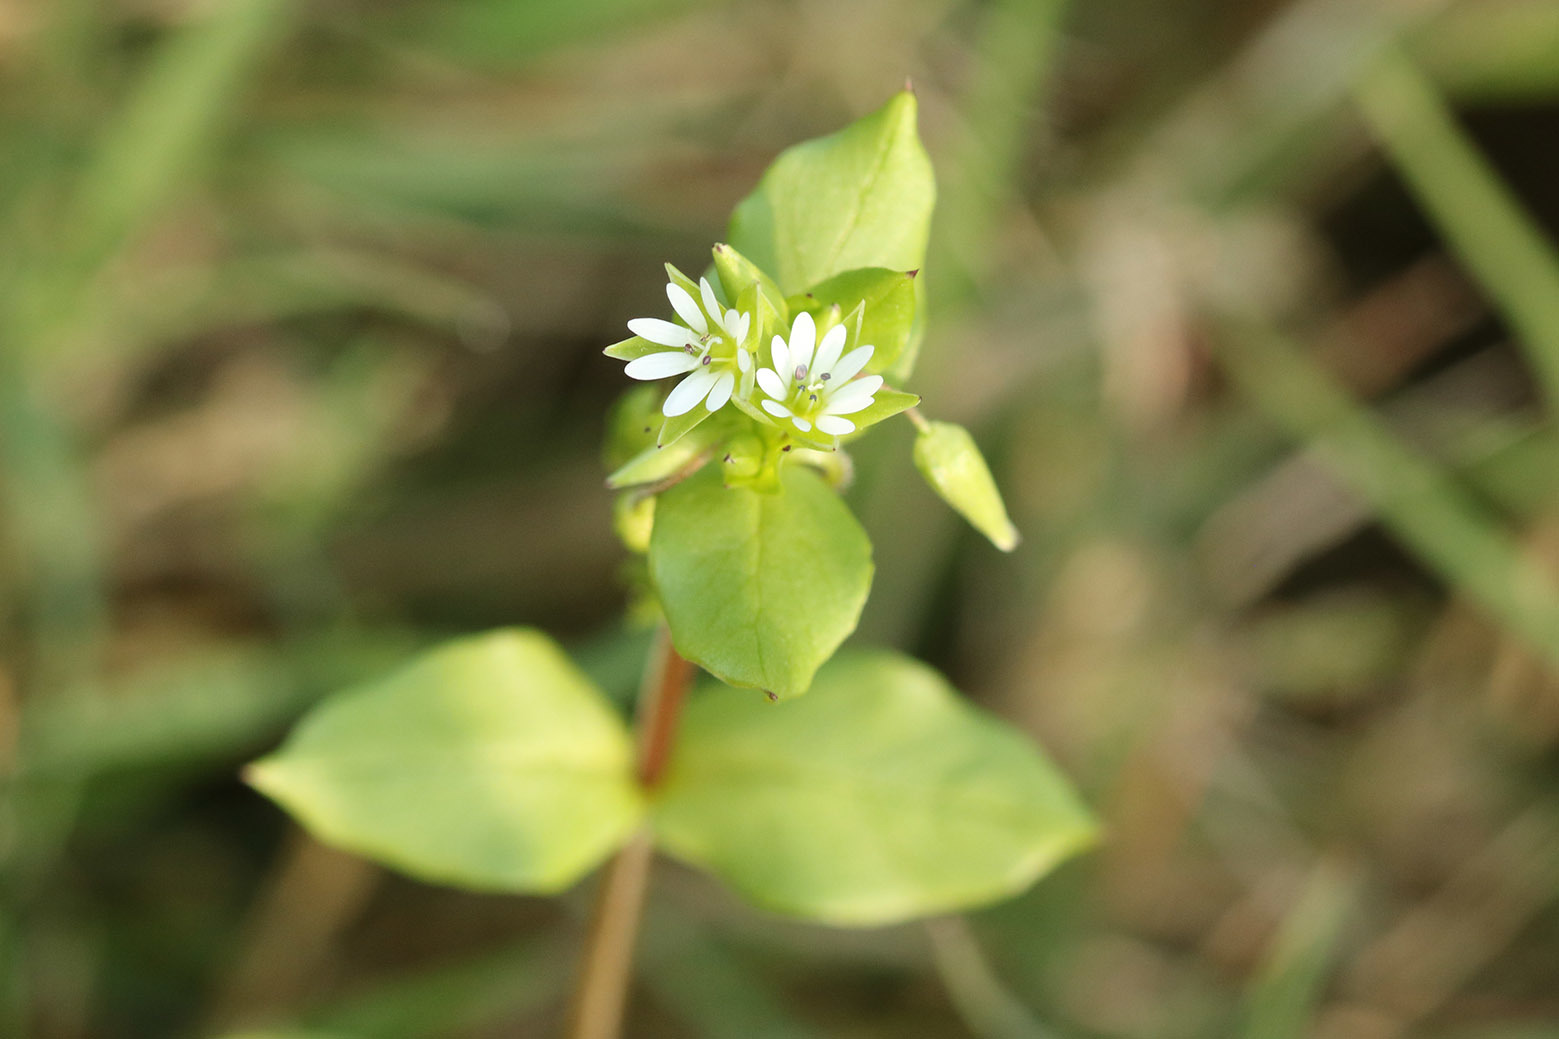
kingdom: Plantae
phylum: Tracheophyta
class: Magnoliopsida
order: Caryophyllales
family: Caryophyllaceae
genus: Stellaria
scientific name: Stellaria media
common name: Common chickweed
